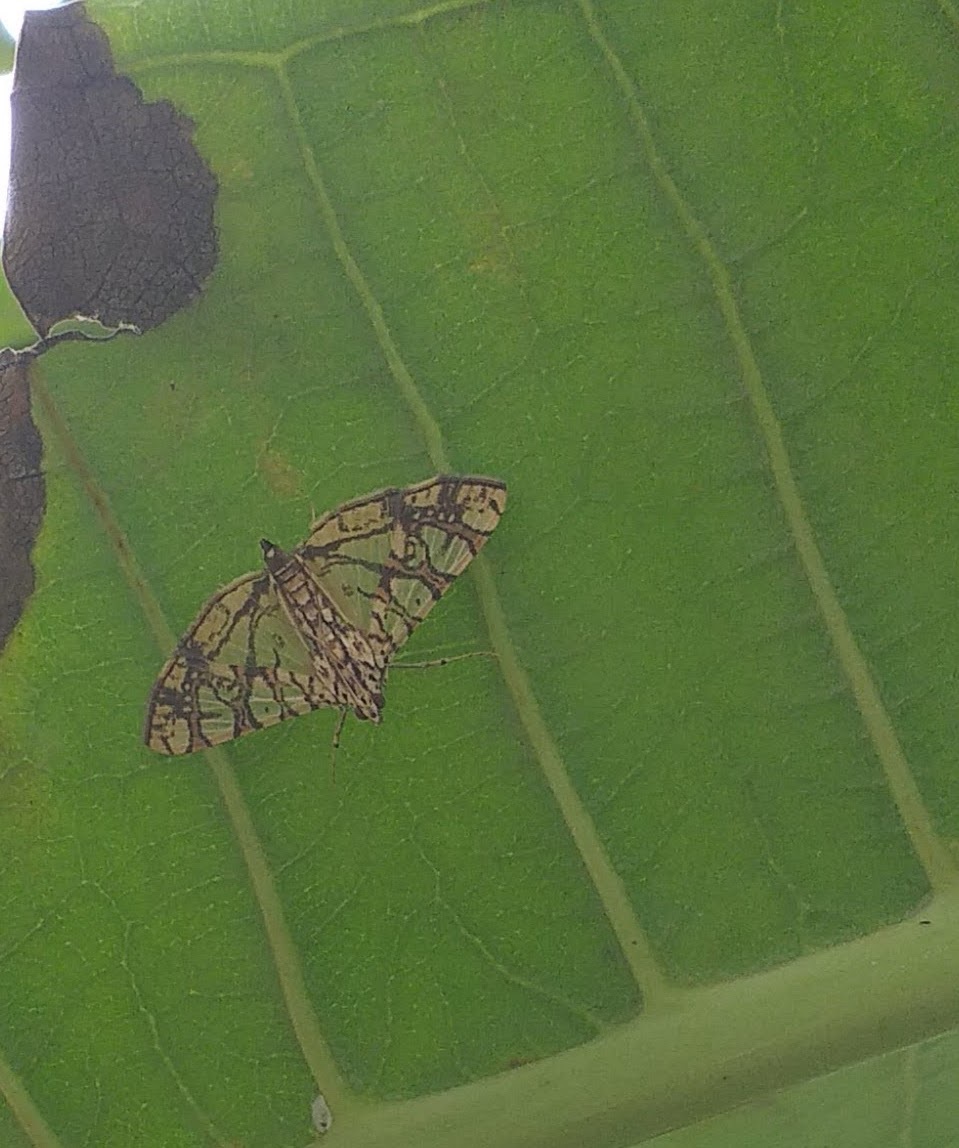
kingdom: Animalia
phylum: Arthropoda
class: Insecta
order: Lepidoptera
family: Crambidae
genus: Glyphodes
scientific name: Glyphodes caesalis
